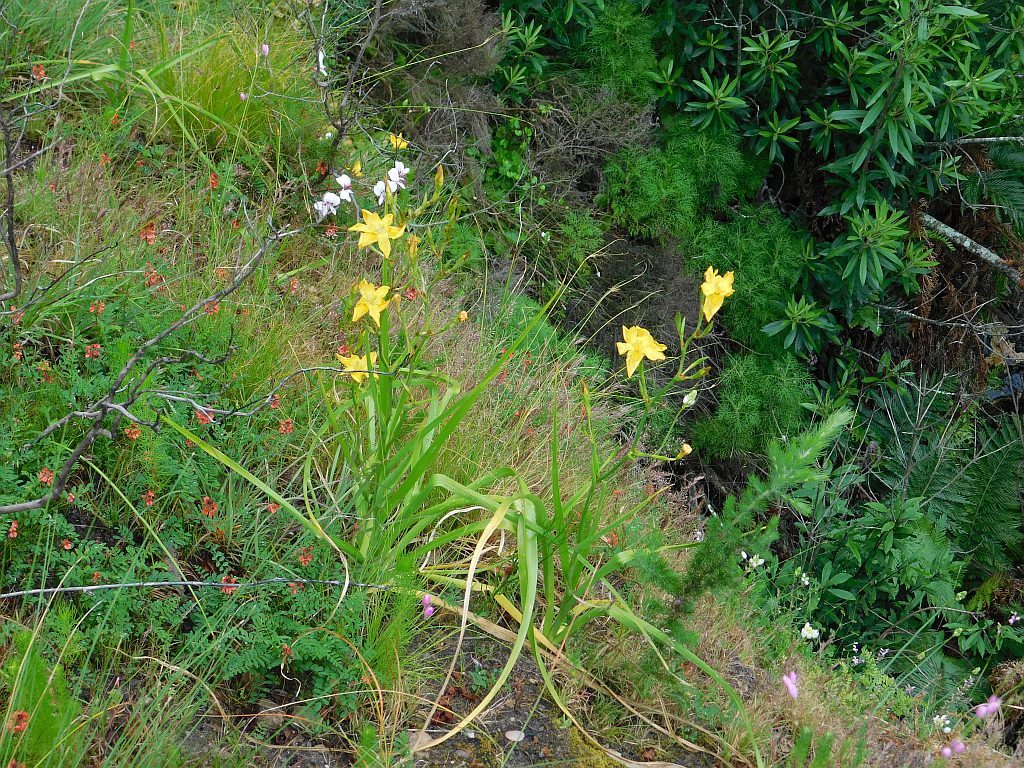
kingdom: Plantae
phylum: Tracheophyta
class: Liliopsida
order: Asparagales
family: Iridaceae
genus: Moraea
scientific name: Moraea ramosissima
